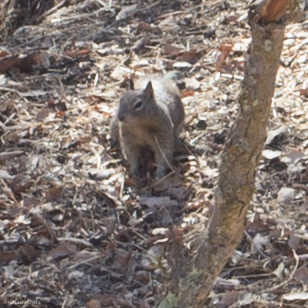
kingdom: Animalia
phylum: Chordata
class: Mammalia
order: Rodentia
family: Sciuridae
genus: Otospermophilus
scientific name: Otospermophilus beecheyi
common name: California ground squirrel
